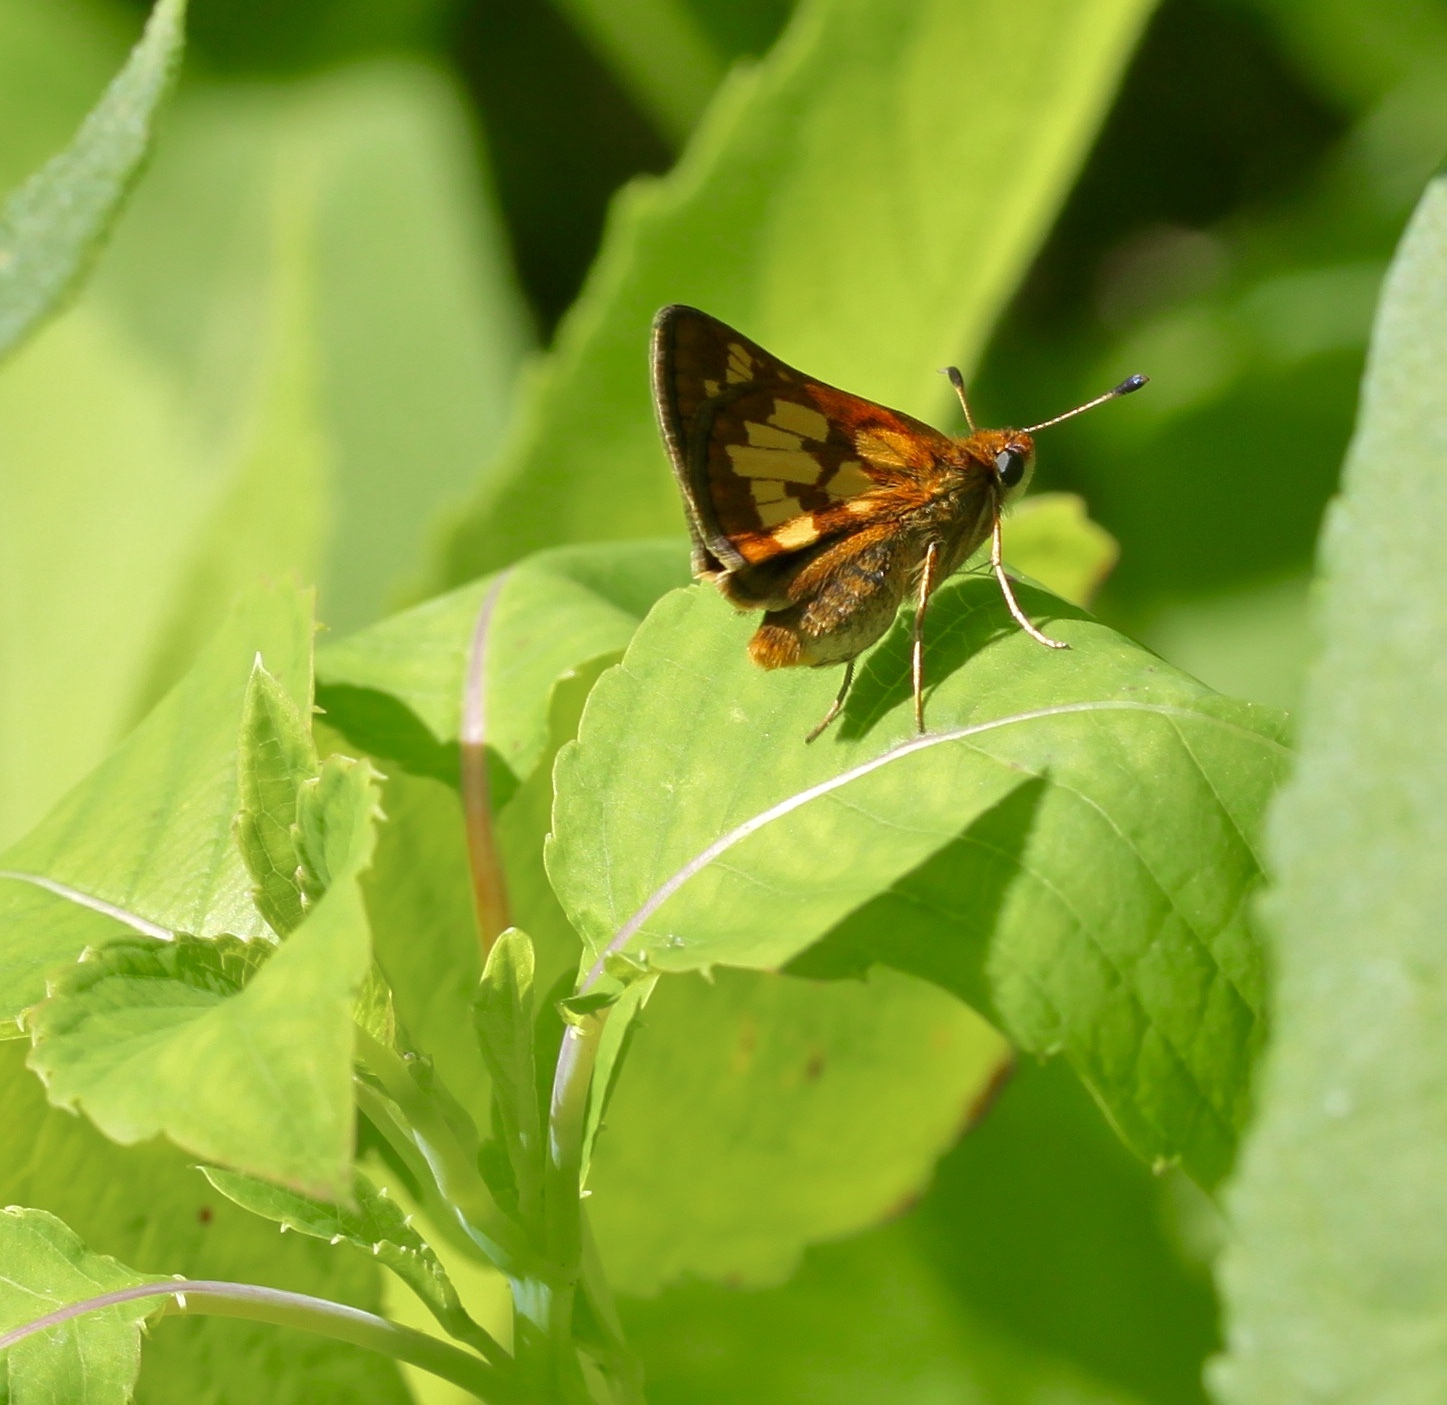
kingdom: Animalia
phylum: Arthropoda
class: Insecta
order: Lepidoptera
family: Hesperiidae
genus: Polites
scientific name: Polites coras
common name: Peck's skipper
